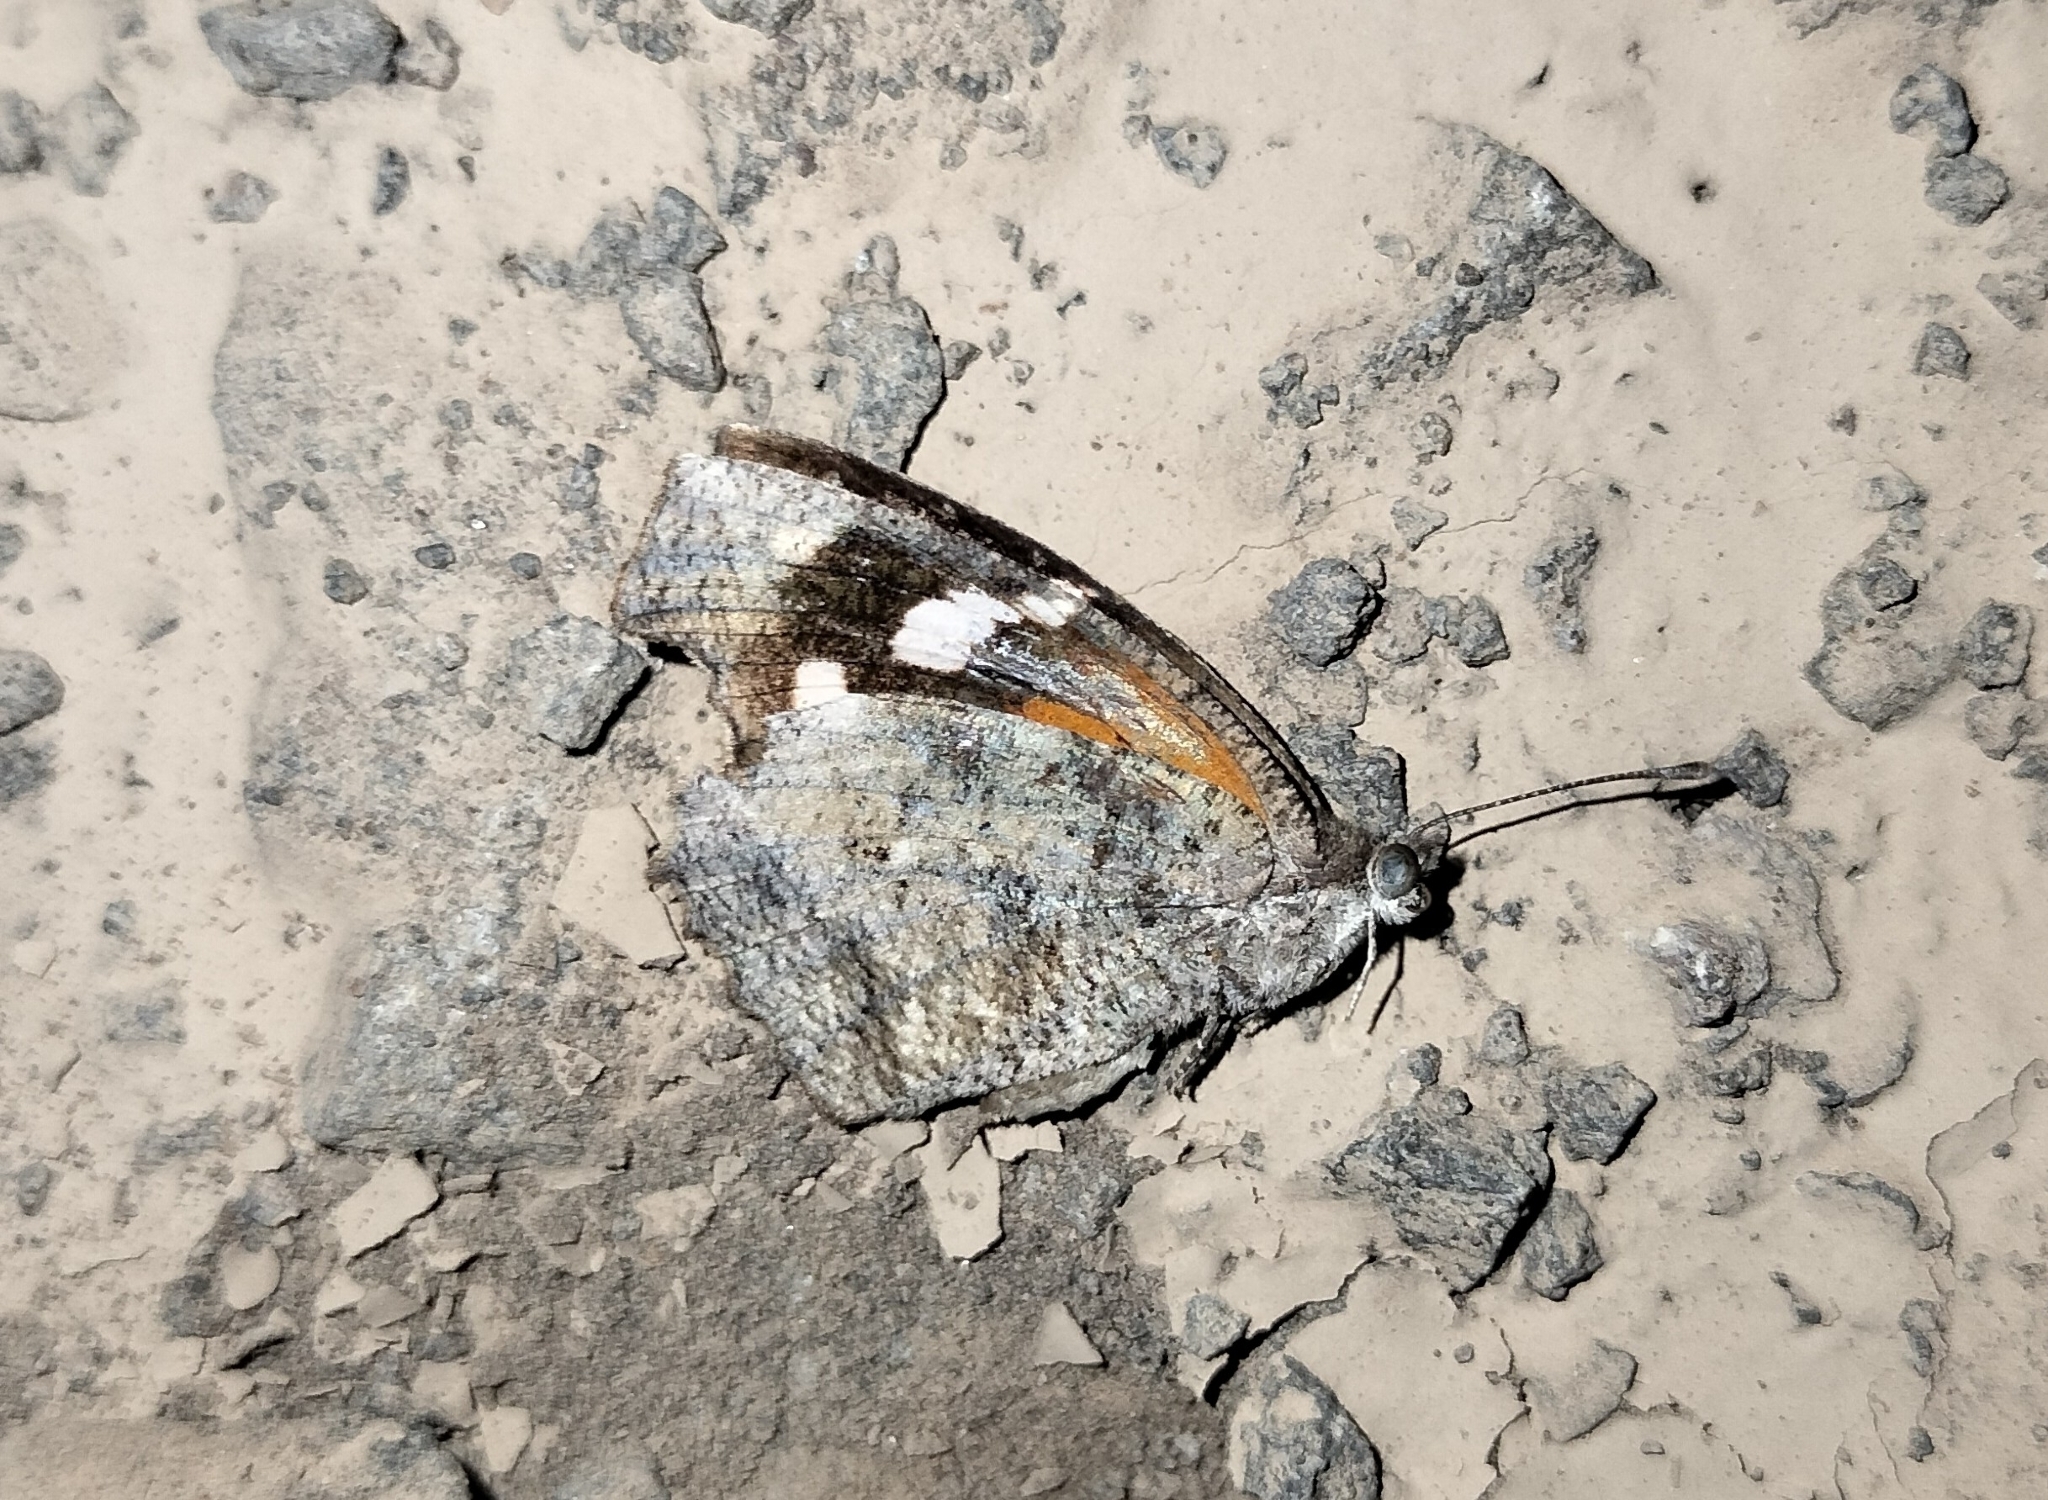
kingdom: Animalia
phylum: Arthropoda
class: Insecta
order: Lepidoptera
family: Nymphalidae
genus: Libytheana
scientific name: Libytheana carinenta
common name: American snout
